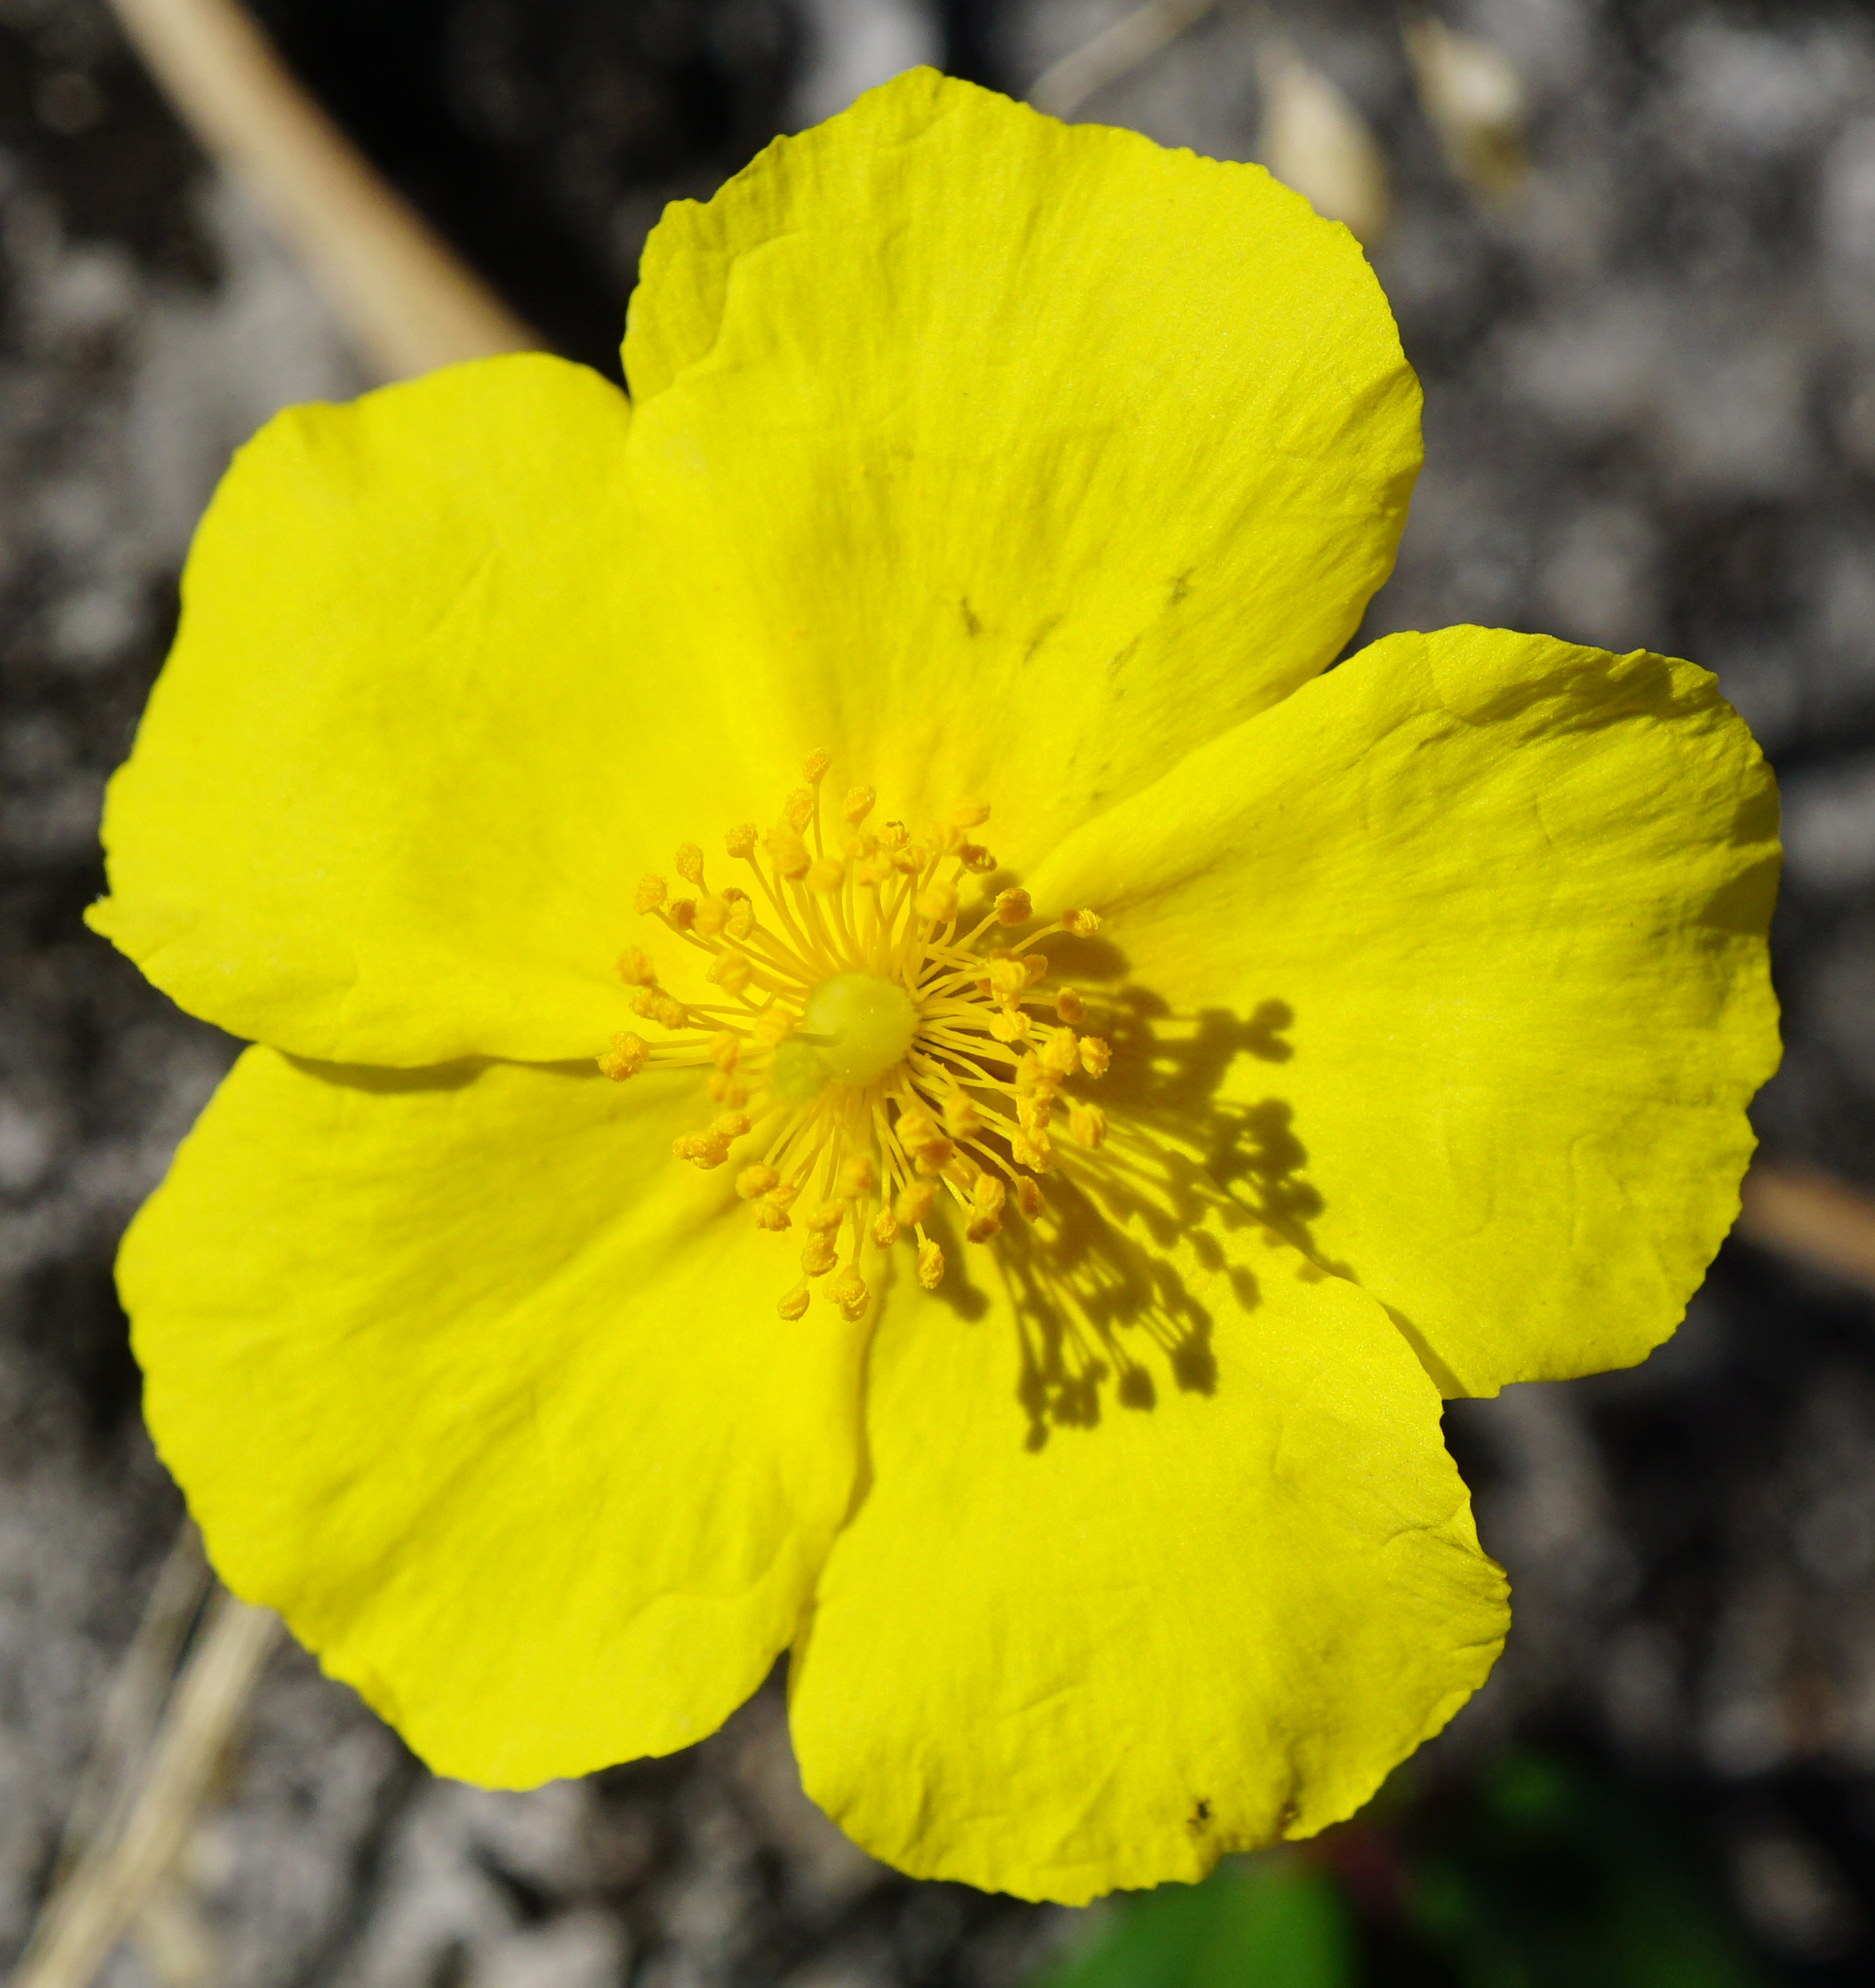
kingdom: Plantae
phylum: Tracheophyta
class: Magnoliopsida
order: Malvales
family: Cistaceae
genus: Helianthemum
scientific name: Helianthemum nummularium
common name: Common rock-rose
